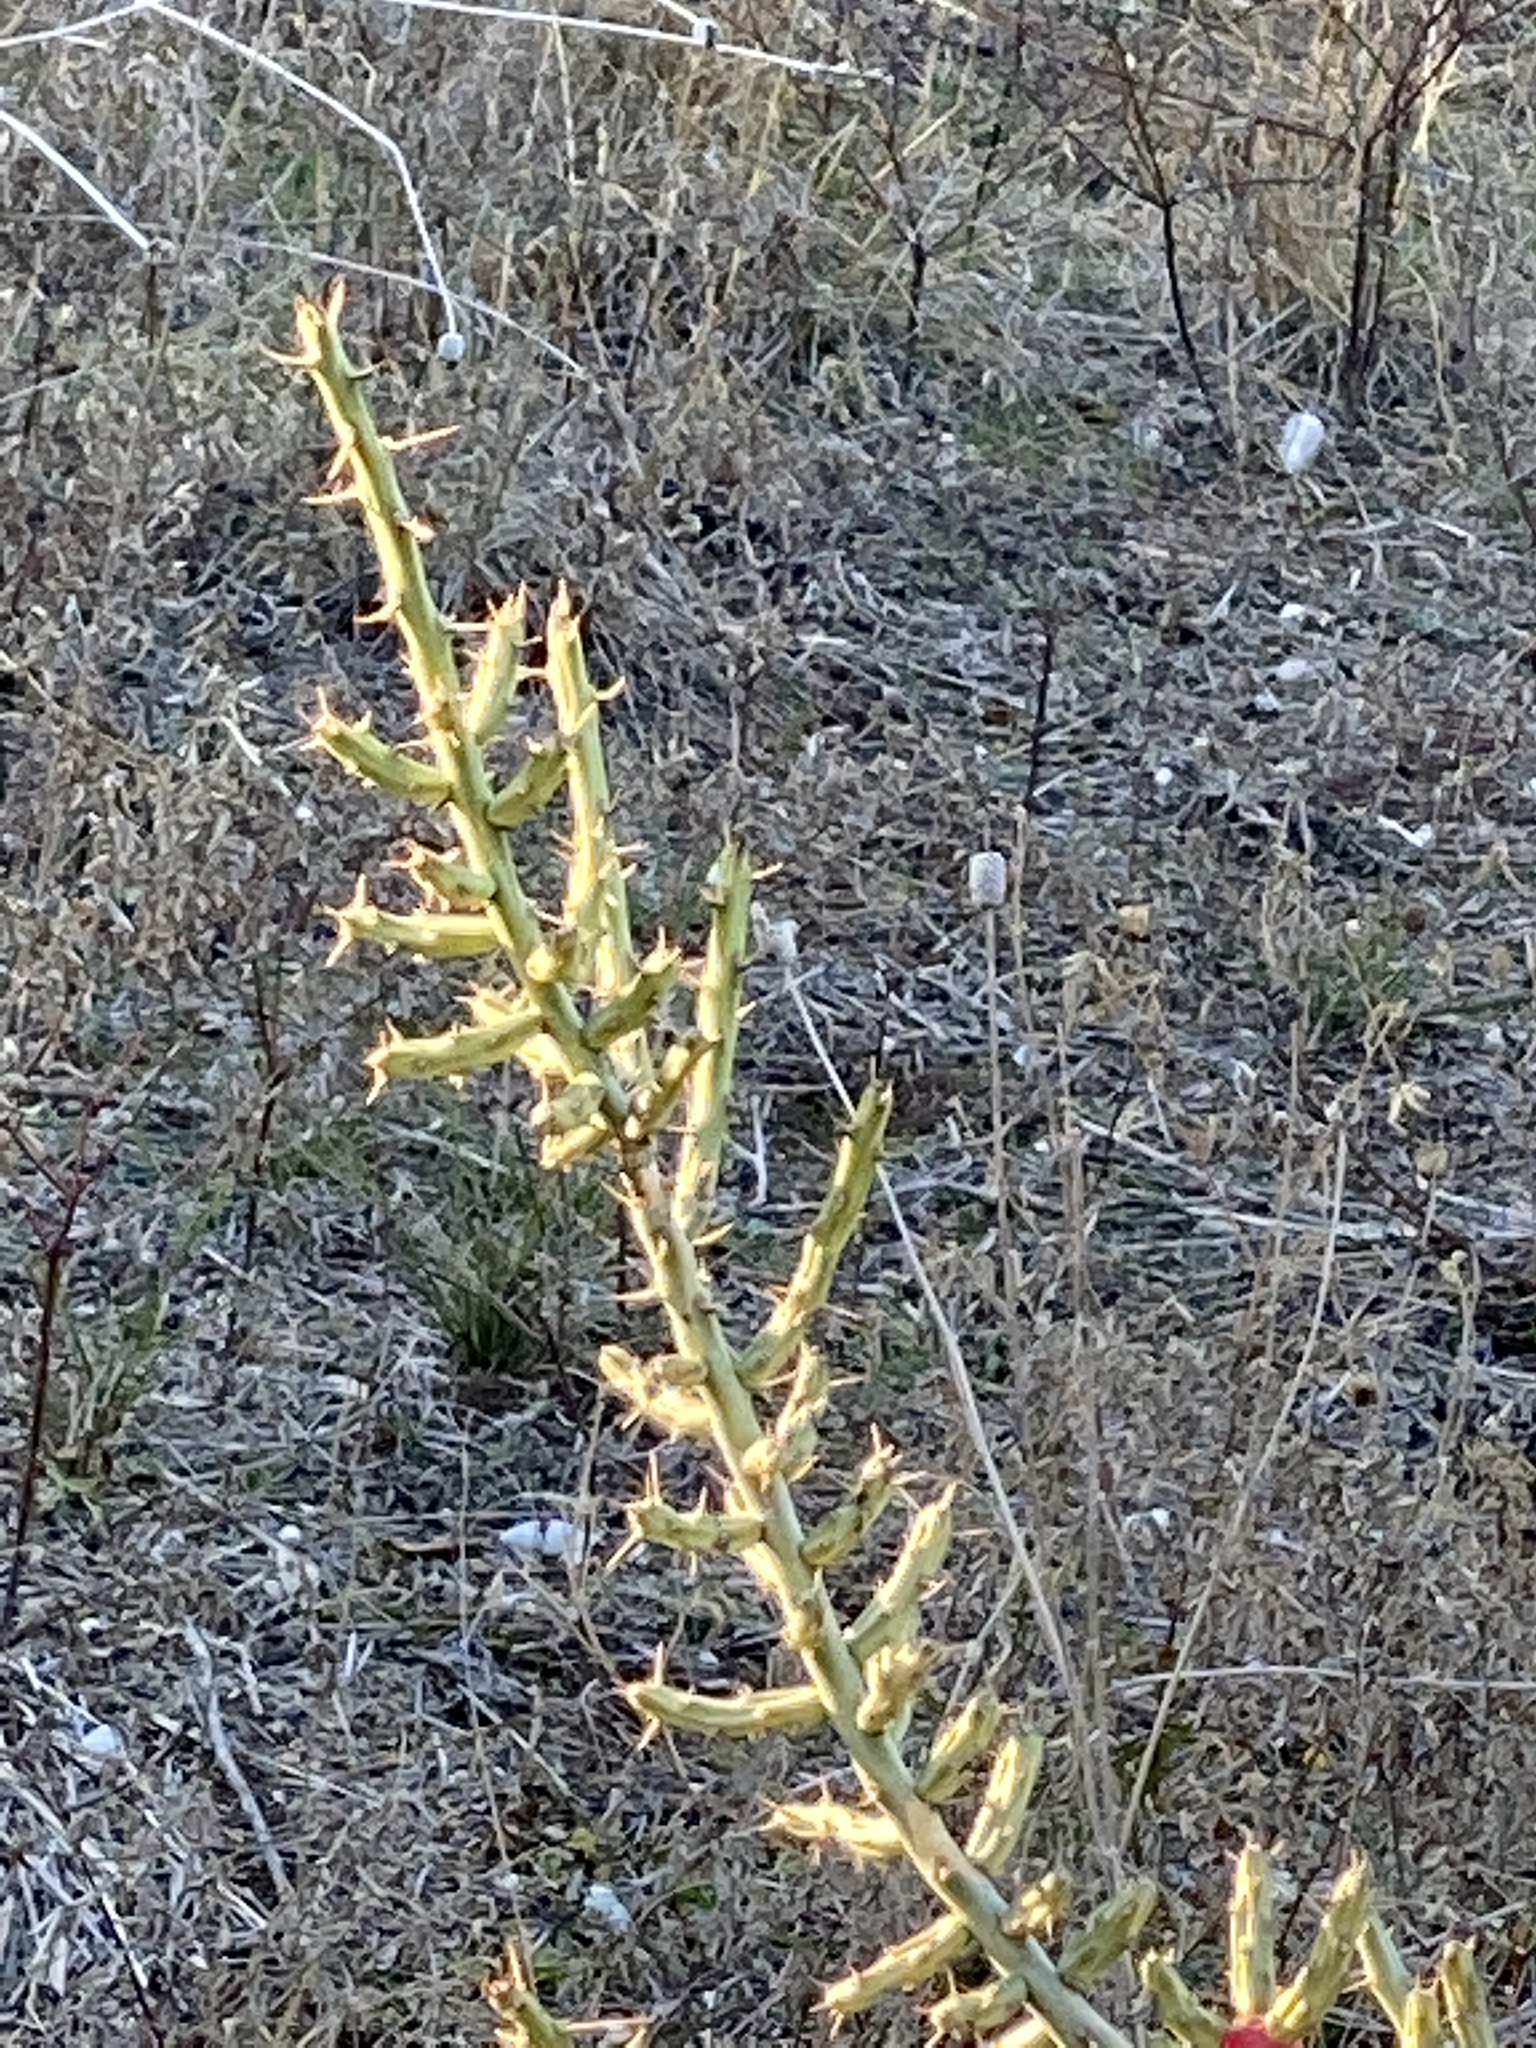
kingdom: Plantae
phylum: Tracheophyta
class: Magnoliopsida
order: Caryophyllales
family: Cactaceae
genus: Cylindropuntia
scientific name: Cylindropuntia leptocaulis
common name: Christmas cactus
